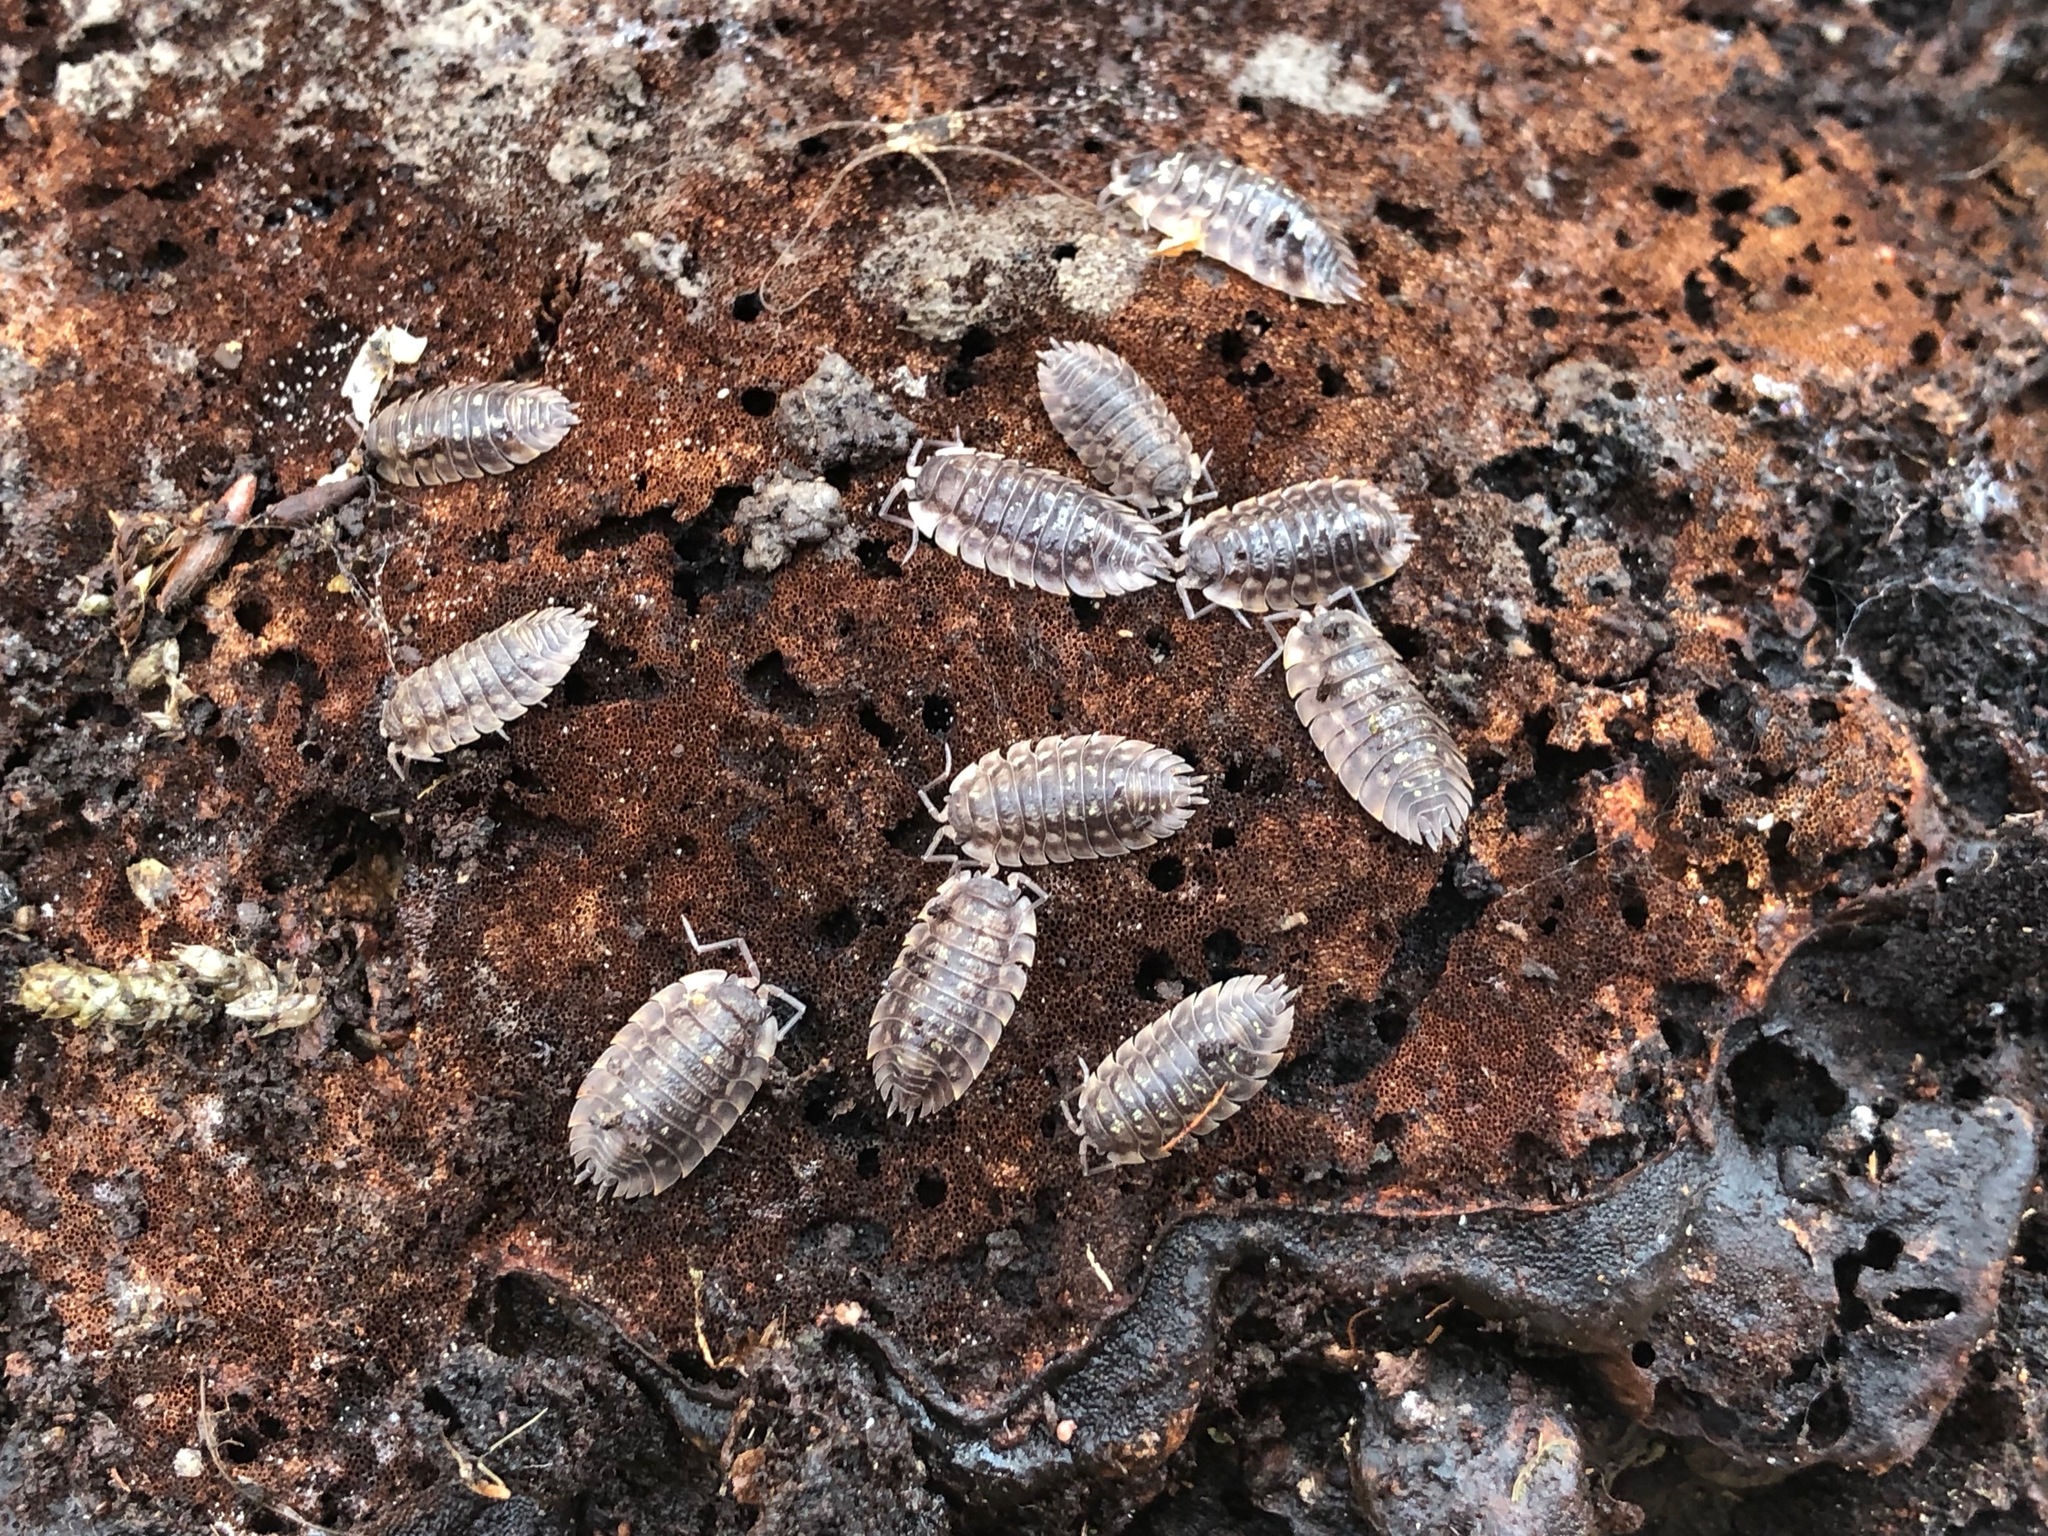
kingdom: Animalia
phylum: Arthropoda
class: Malacostraca
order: Isopoda
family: Oniscidae
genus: Oniscus
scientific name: Oniscus asellus
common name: Common shiny woodlouse
